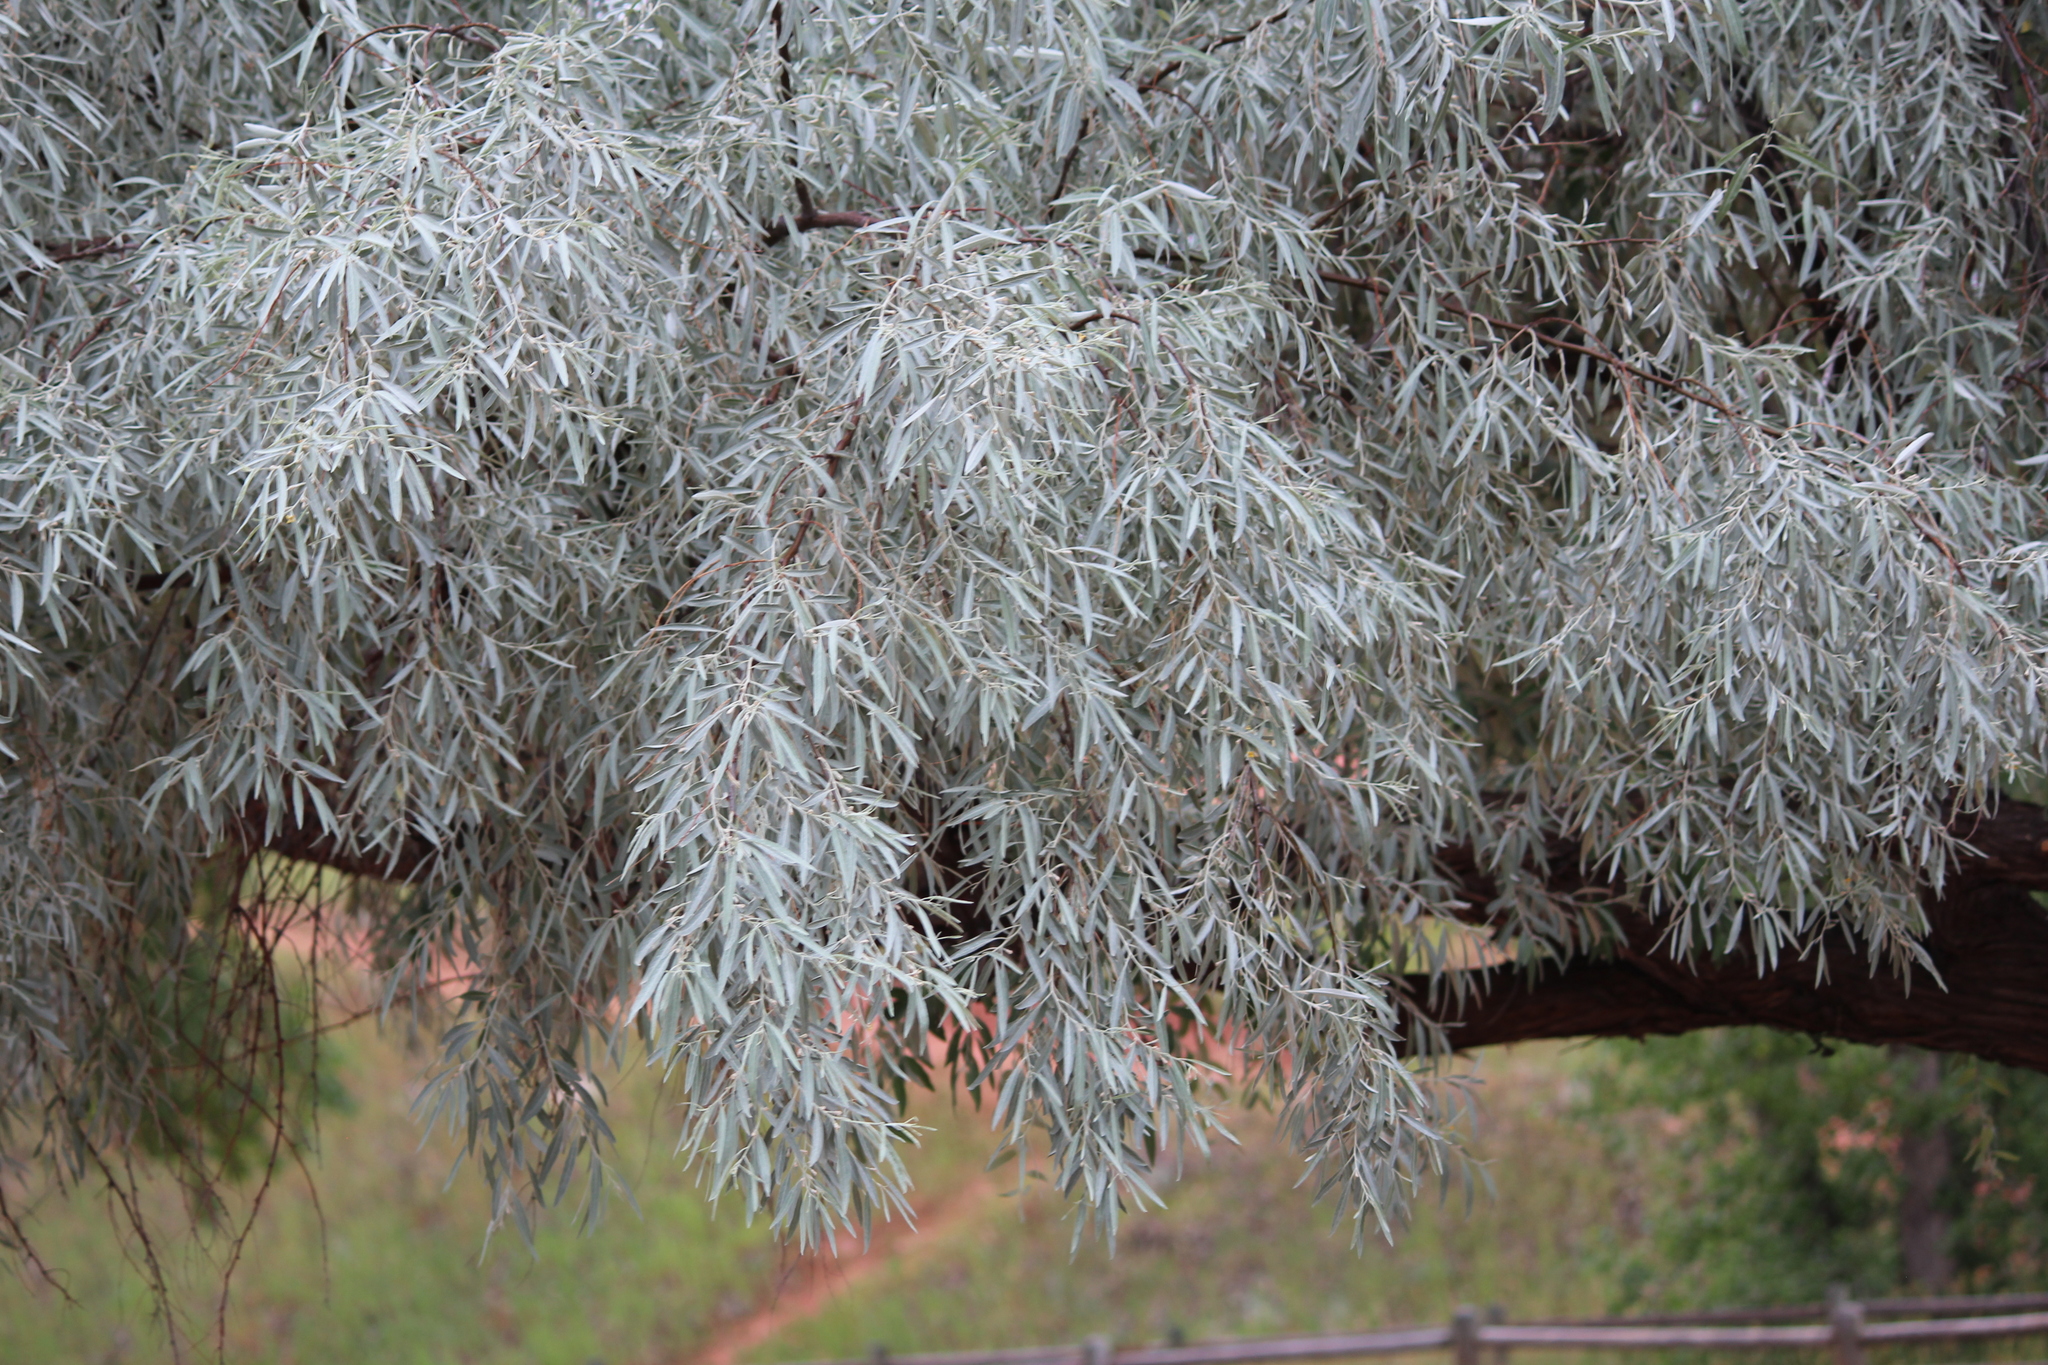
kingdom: Plantae
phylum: Tracheophyta
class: Magnoliopsida
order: Rosales
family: Elaeagnaceae
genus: Elaeagnus
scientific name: Elaeagnus angustifolia
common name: Russian olive
